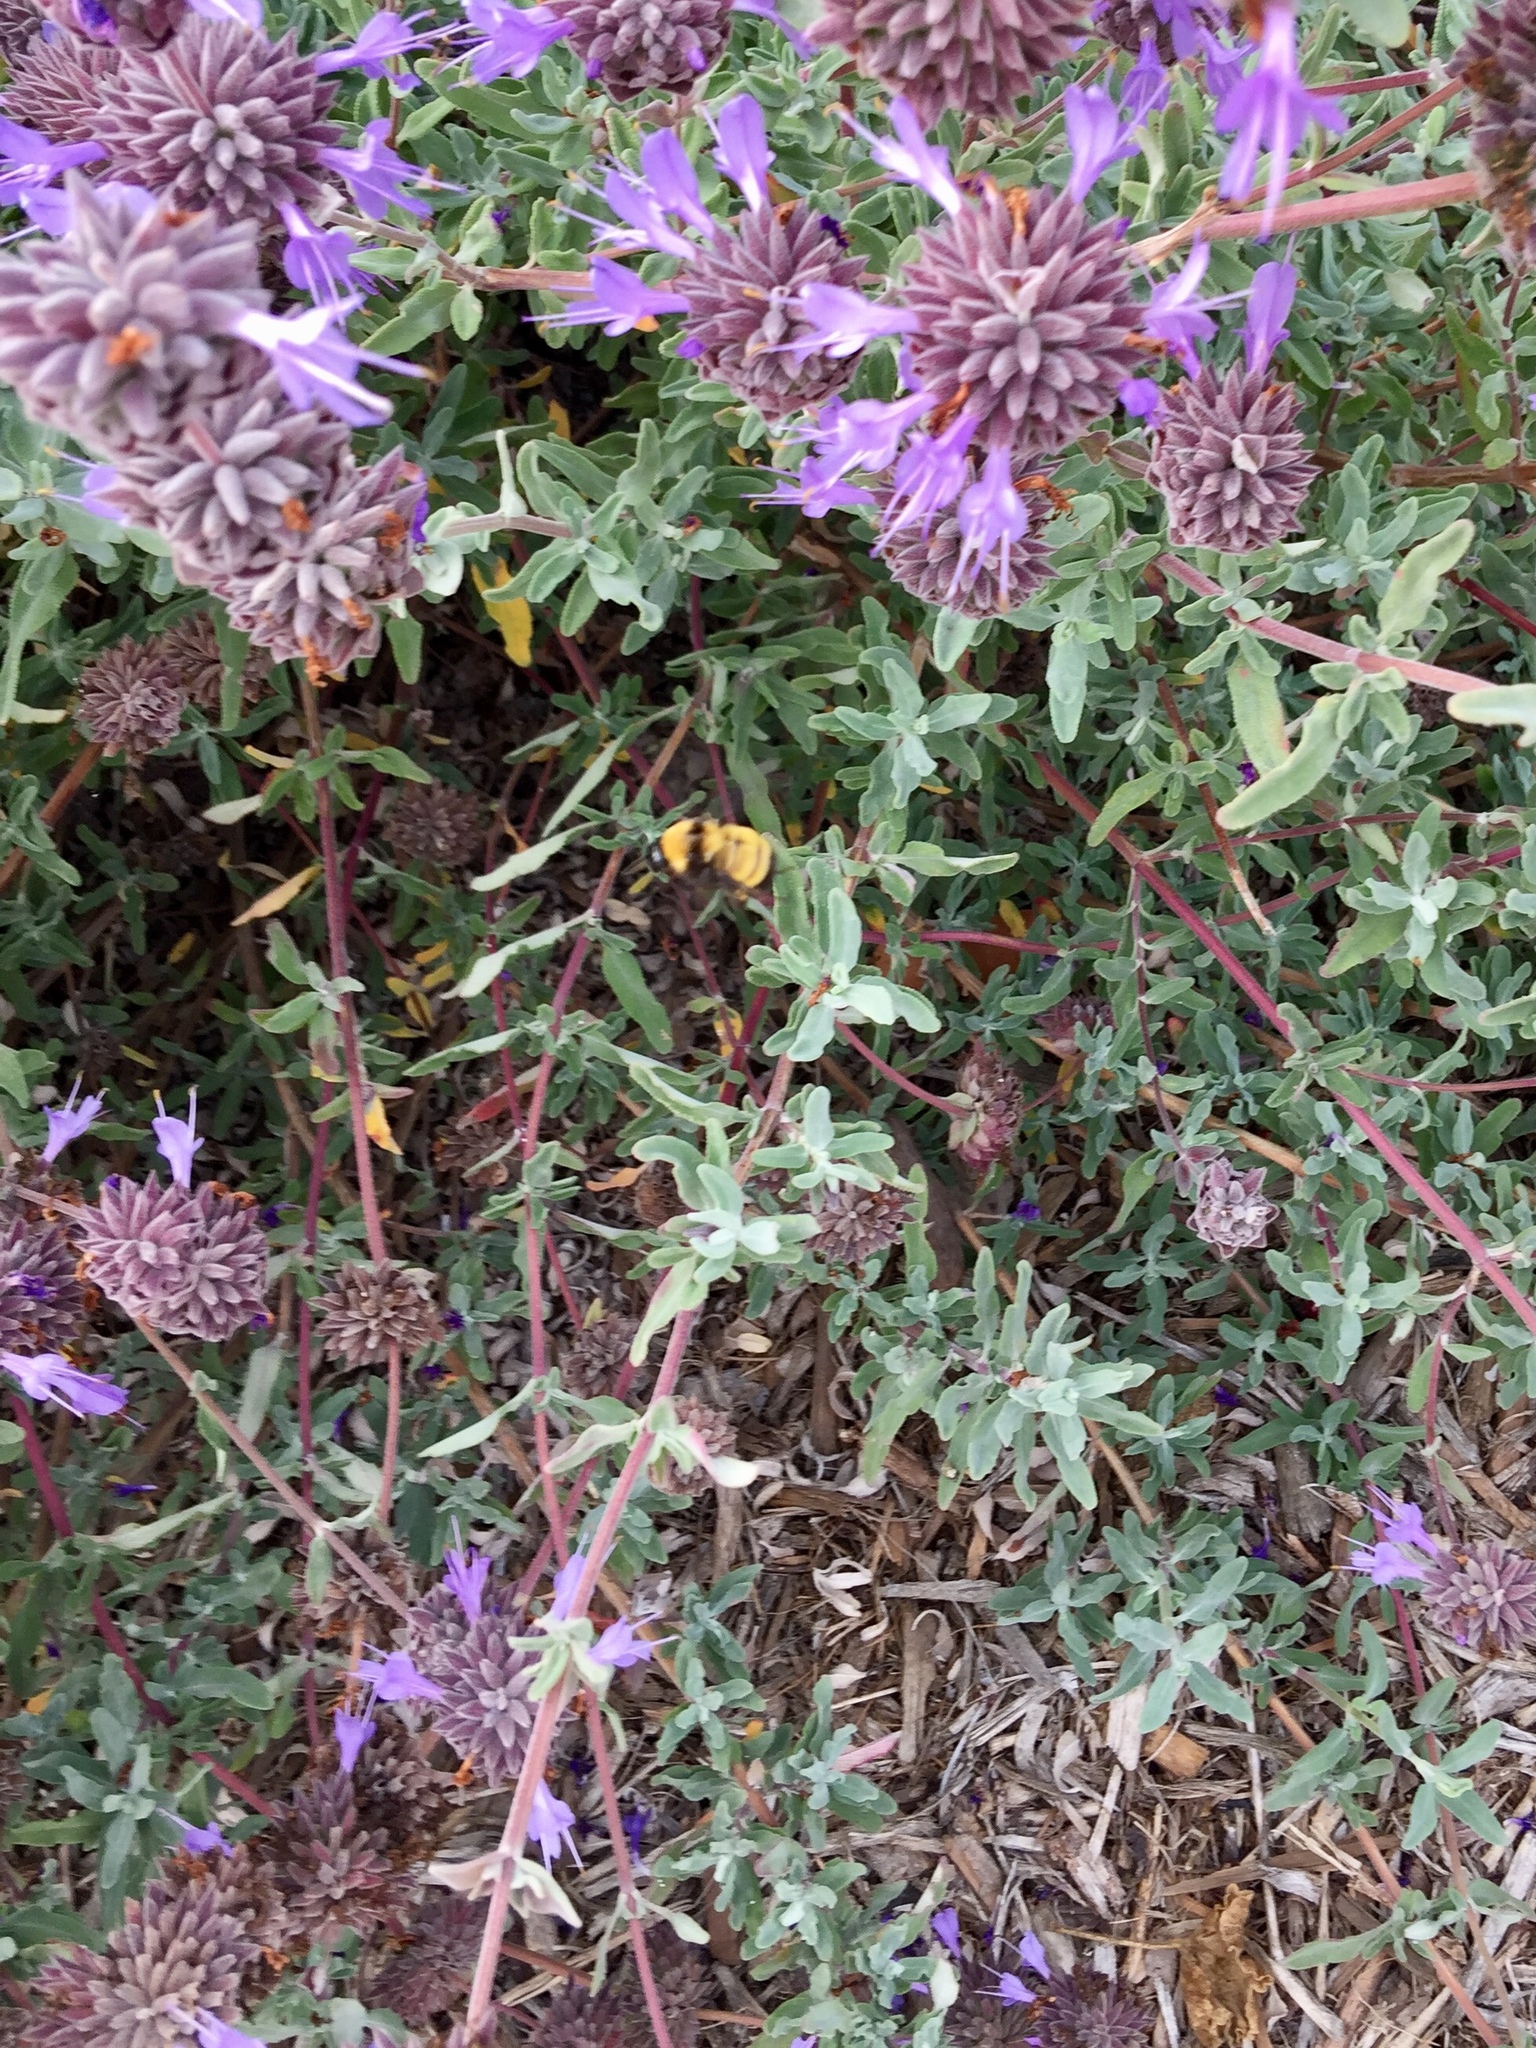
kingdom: Animalia
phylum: Arthropoda
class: Insecta
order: Hymenoptera
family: Apidae
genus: Bombus
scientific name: Bombus sonorus
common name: Sonoran bumble bee
